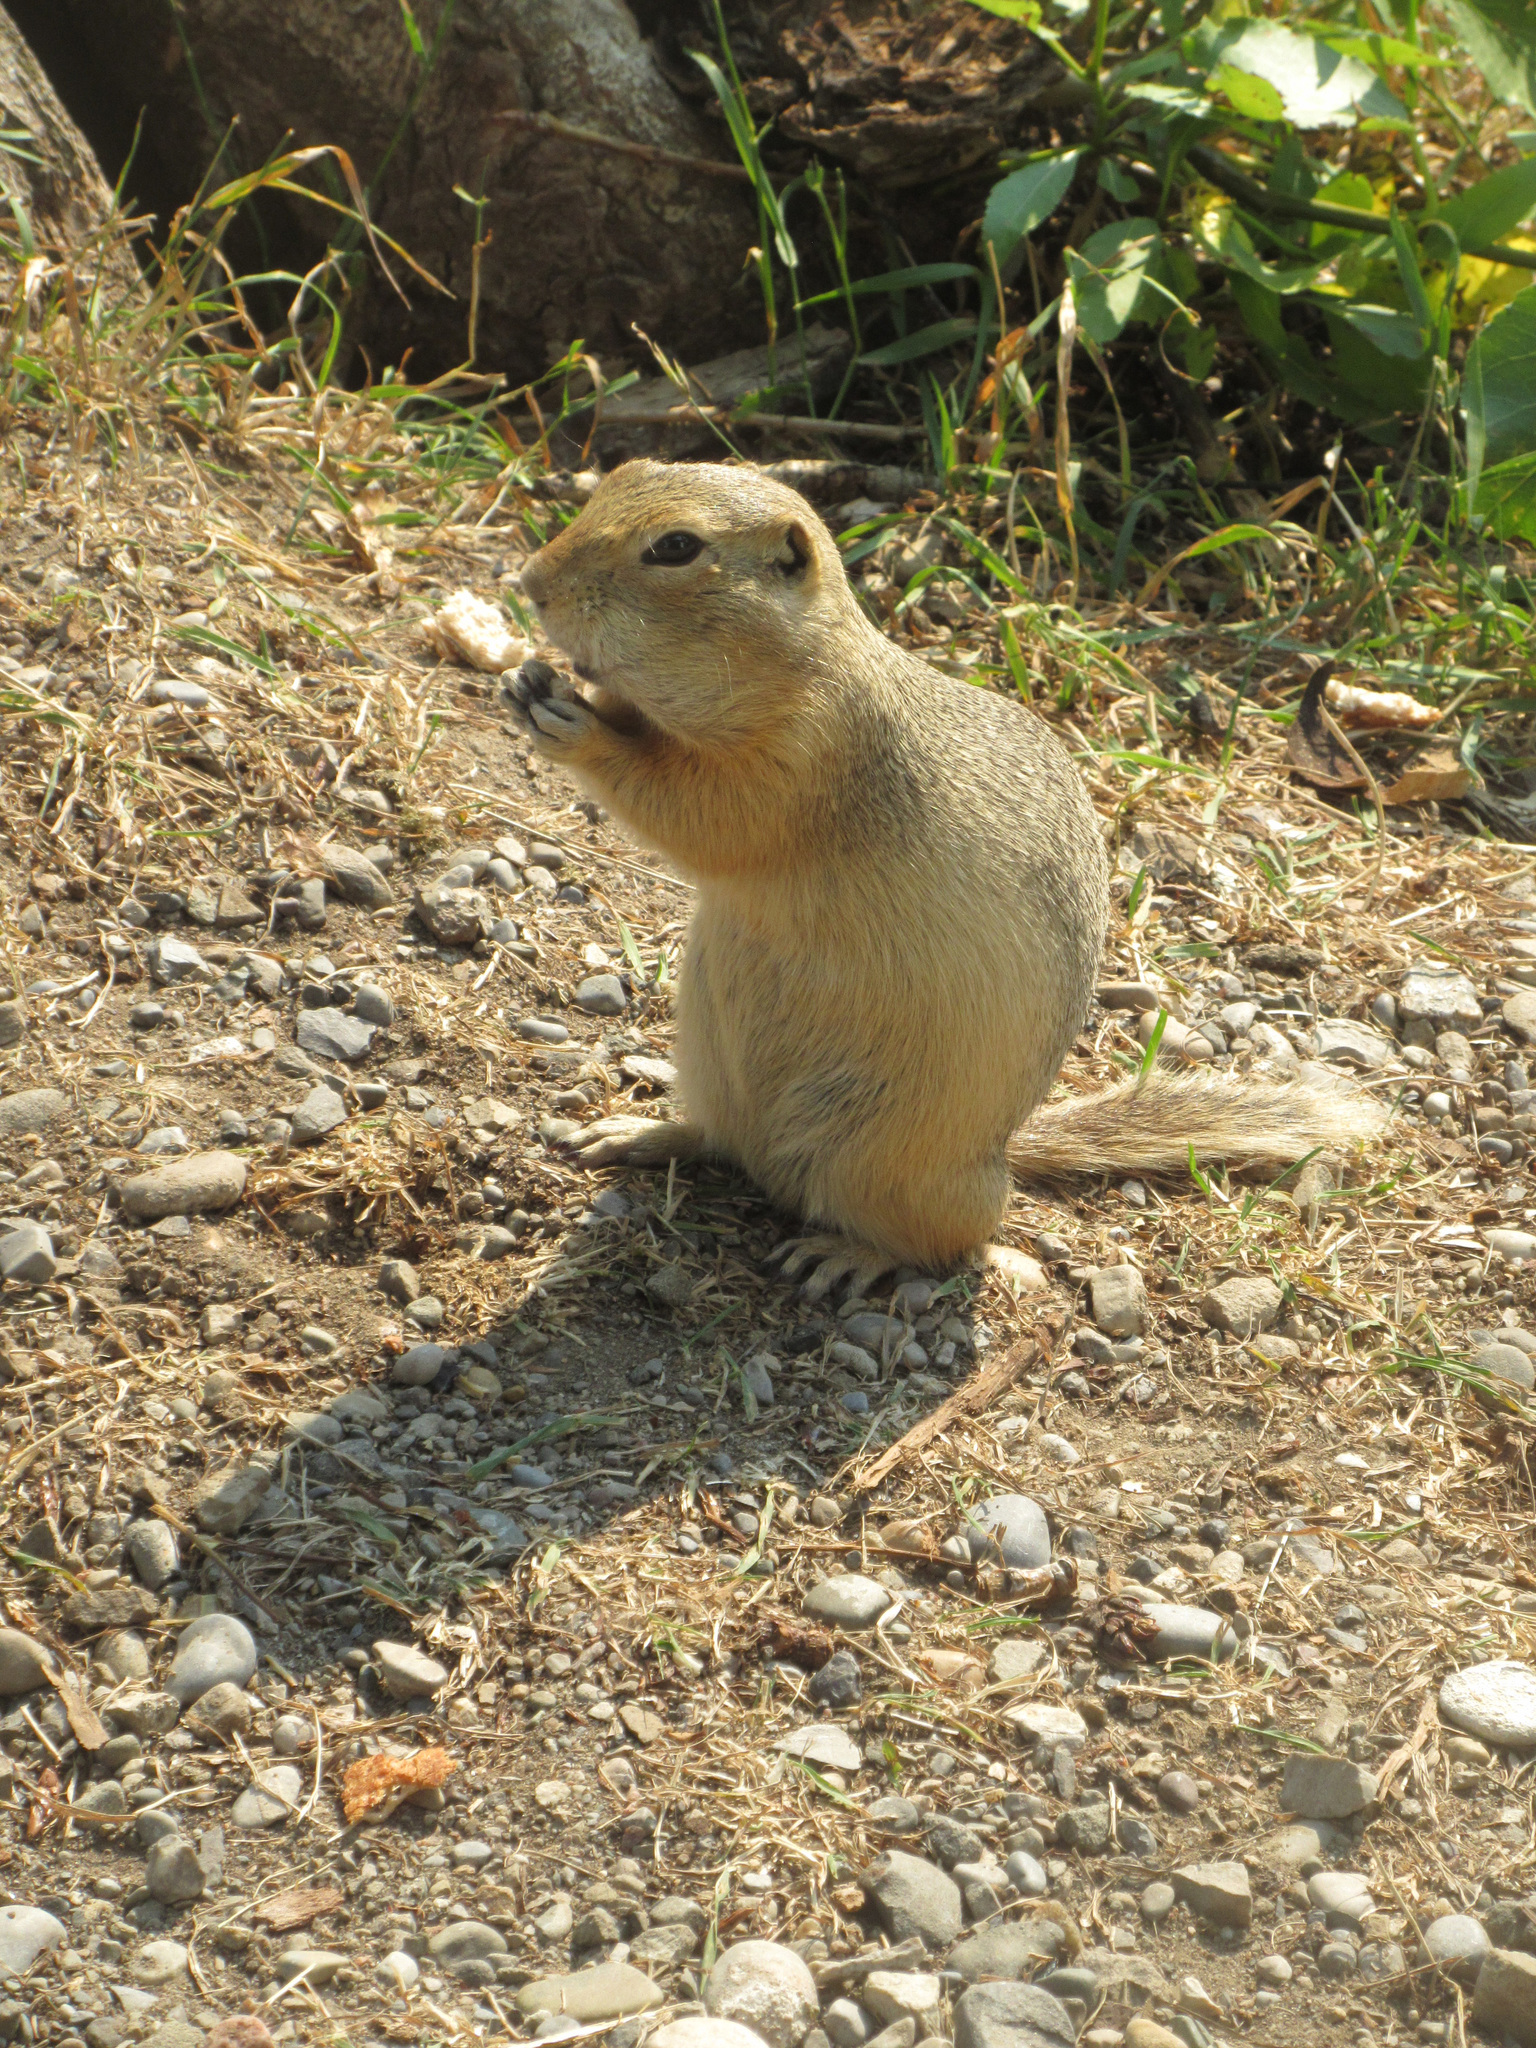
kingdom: Animalia
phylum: Chordata
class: Mammalia
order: Rodentia
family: Sciuridae
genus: Urocitellus
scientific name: Urocitellus richardsonii
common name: Richardson's ground squirrel
